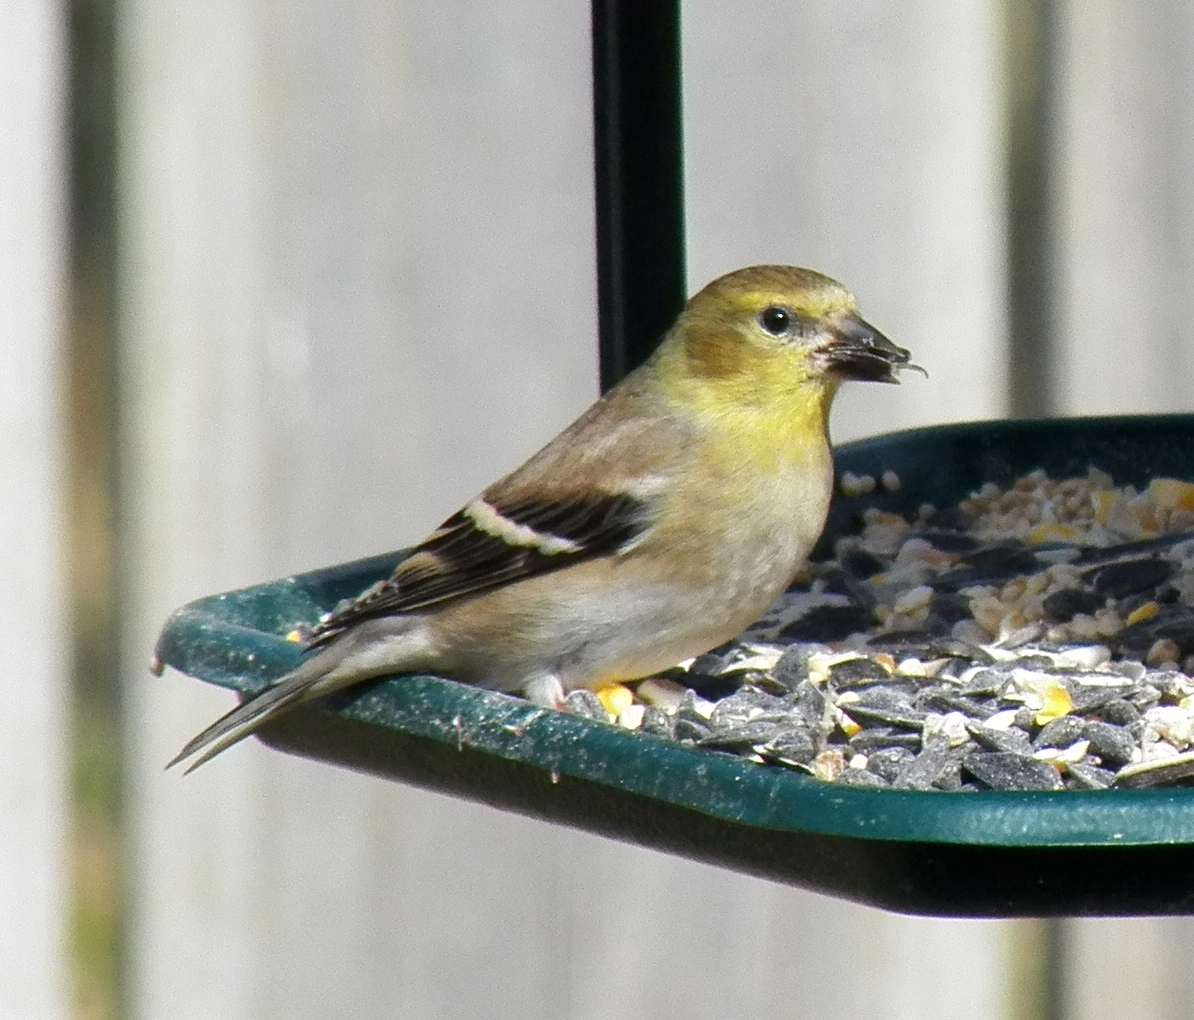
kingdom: Animalia
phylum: Chordata
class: Aves
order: Passeriformes
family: Fringillidae
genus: Spinus
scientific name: Spinus tristis
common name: American goldfinch
